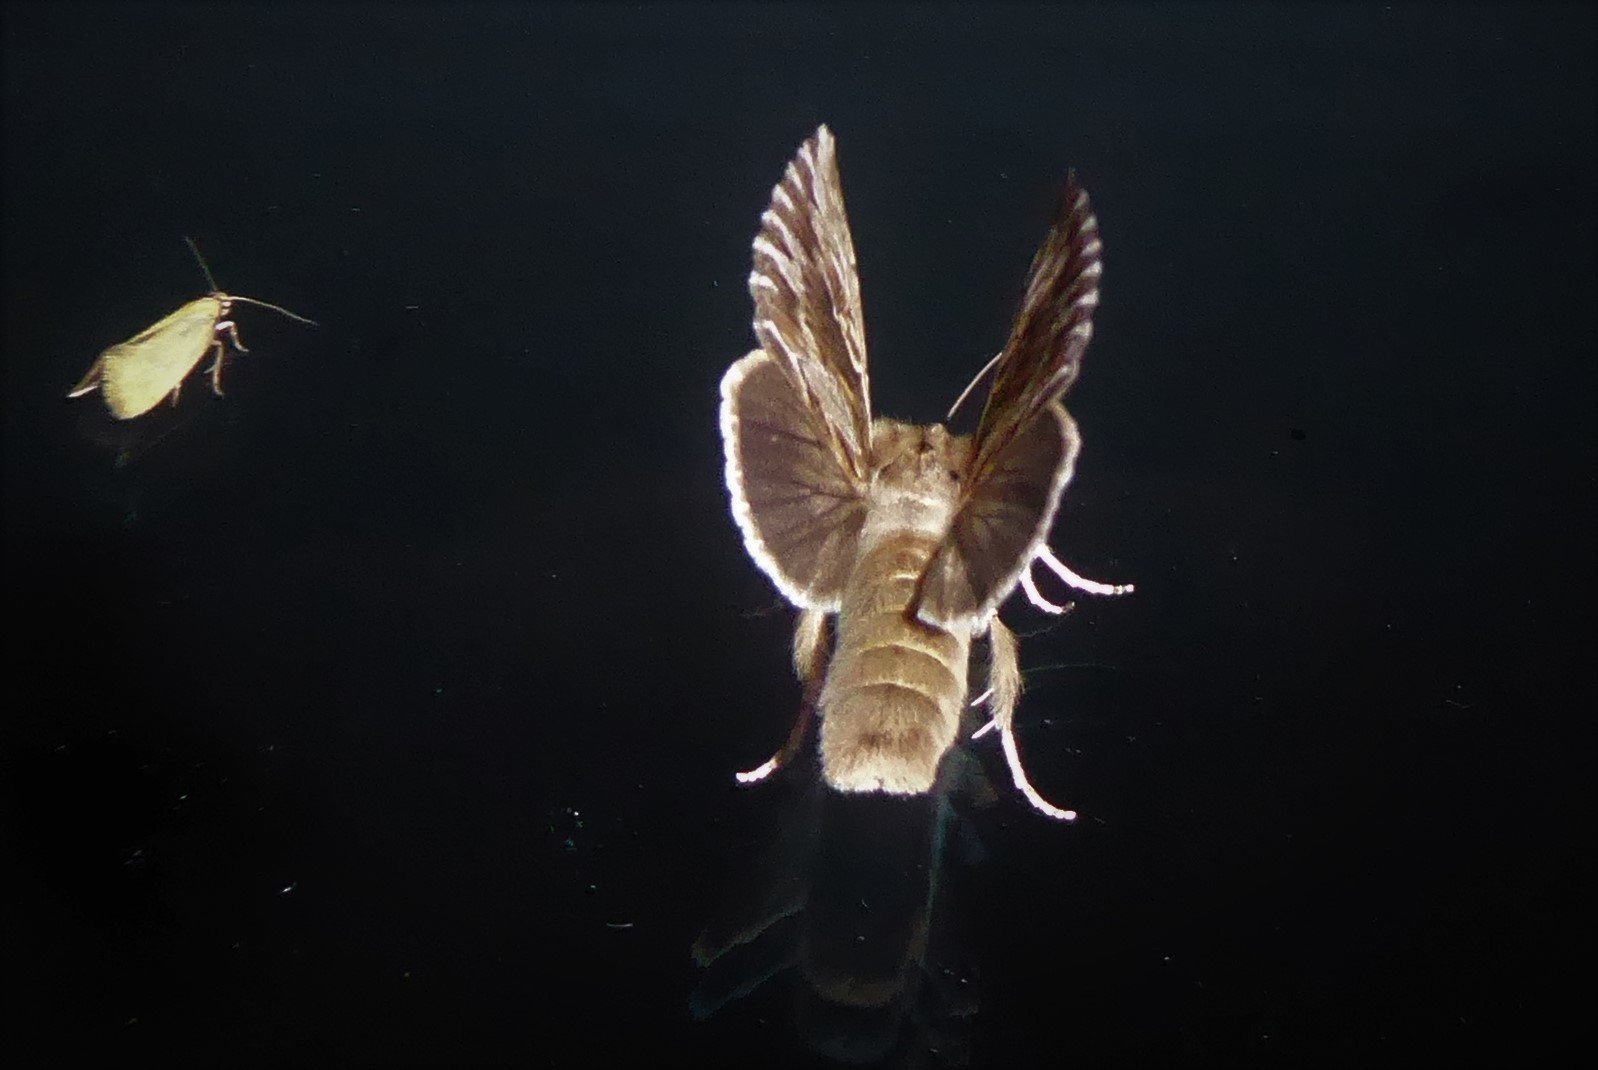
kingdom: Animalia
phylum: Arthropoda
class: Insecta
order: Lepidoptera
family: Noctuidae
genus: Persectania
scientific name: Persectania aversa
